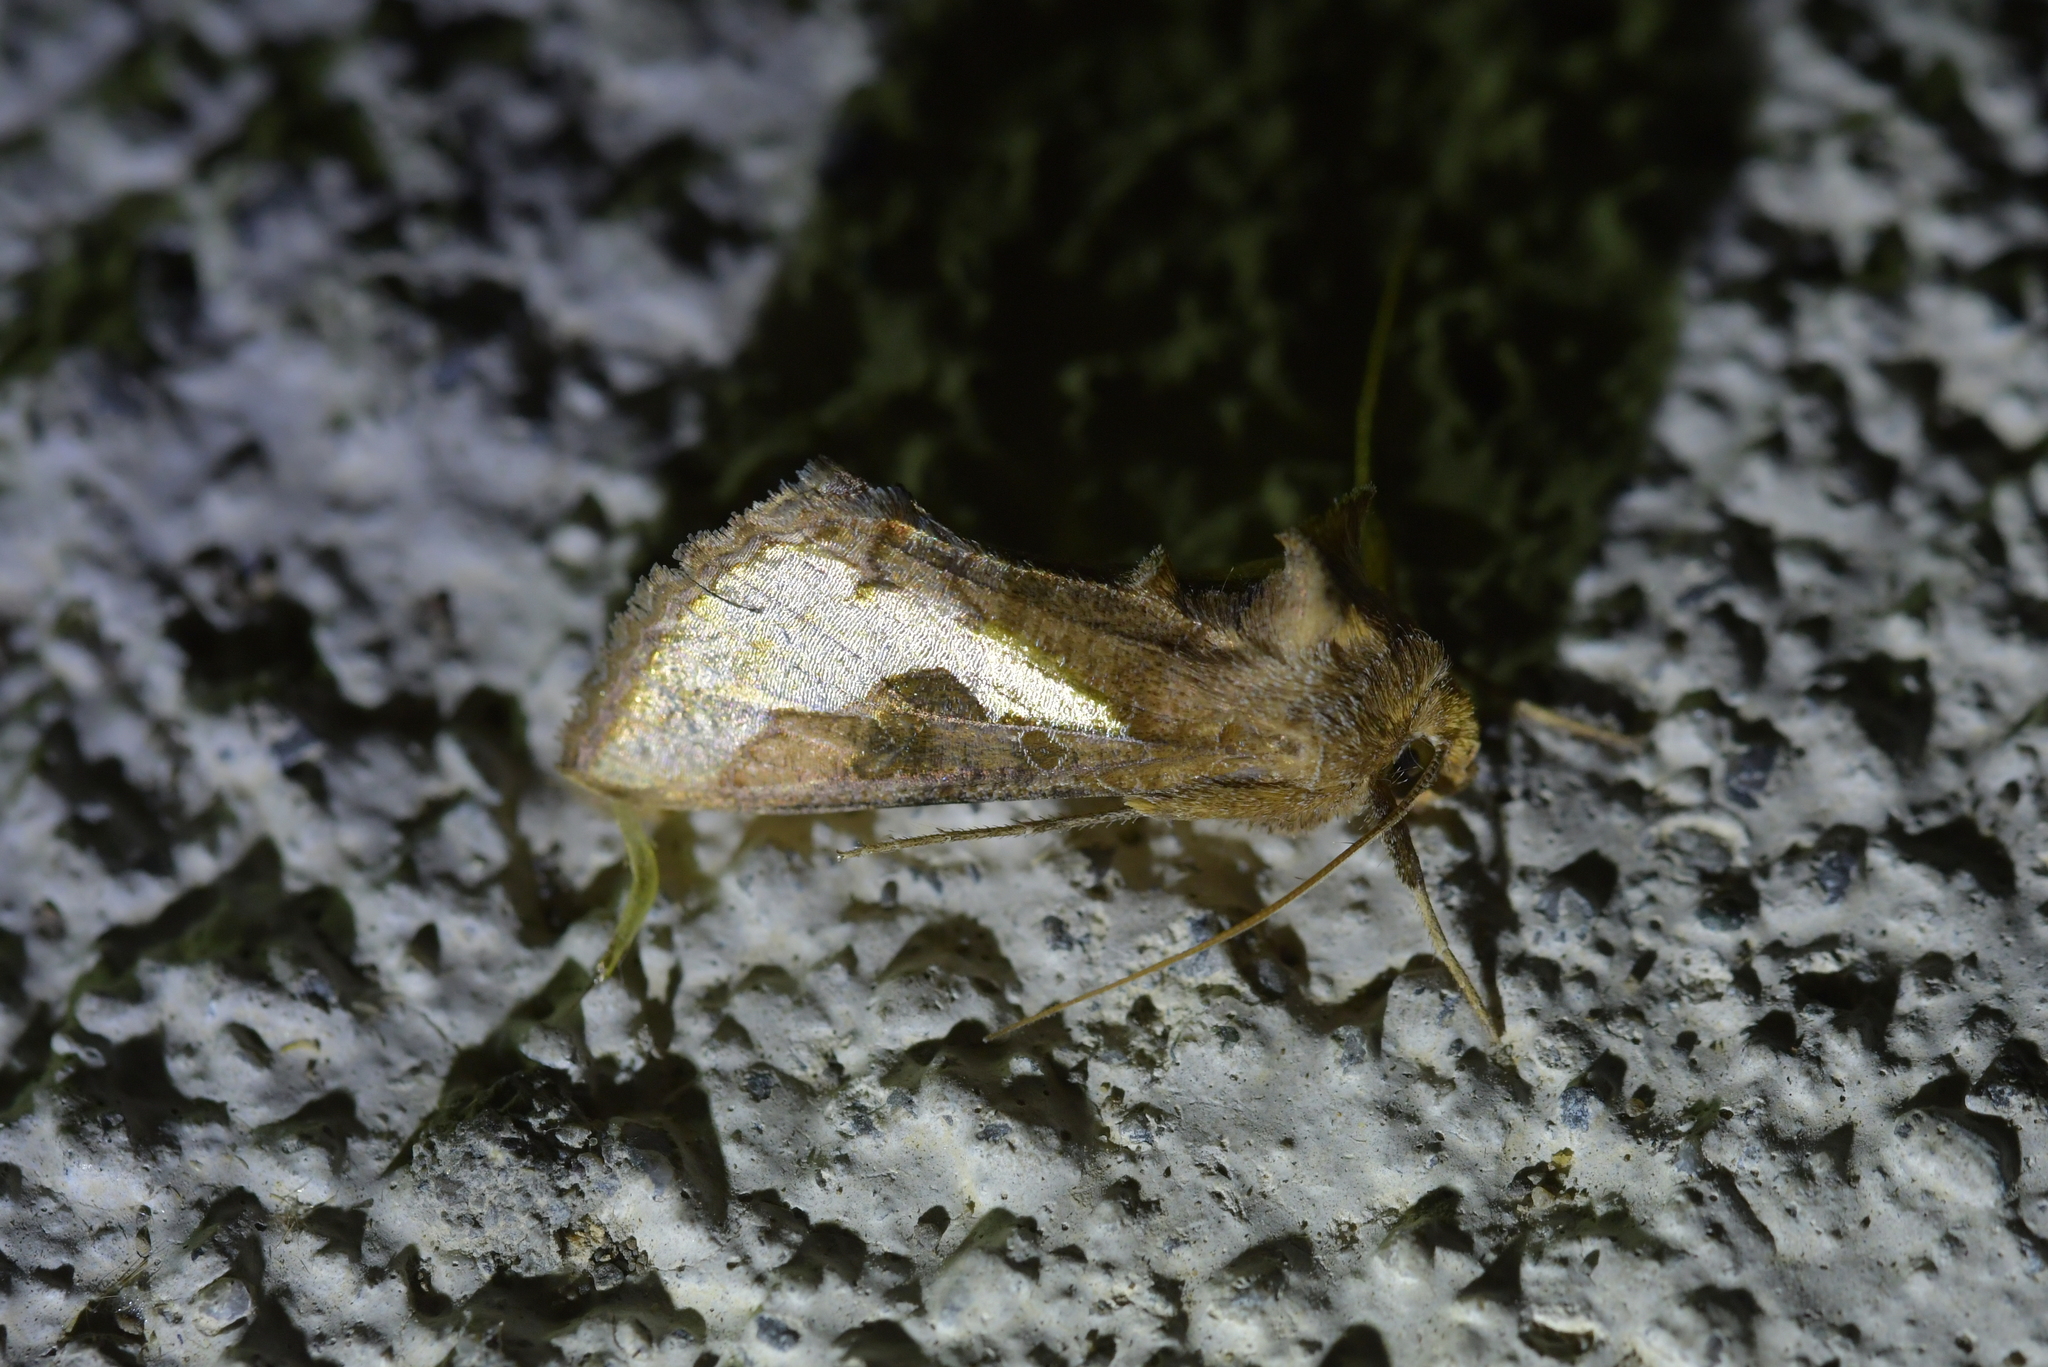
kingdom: Animalia
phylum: Arthropoda
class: Insecta
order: Lepidoptera
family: Noctuidae
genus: Thysanoplusia
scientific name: Thysanoplusia orichalcea
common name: Slender burnished brass, golden plusia
